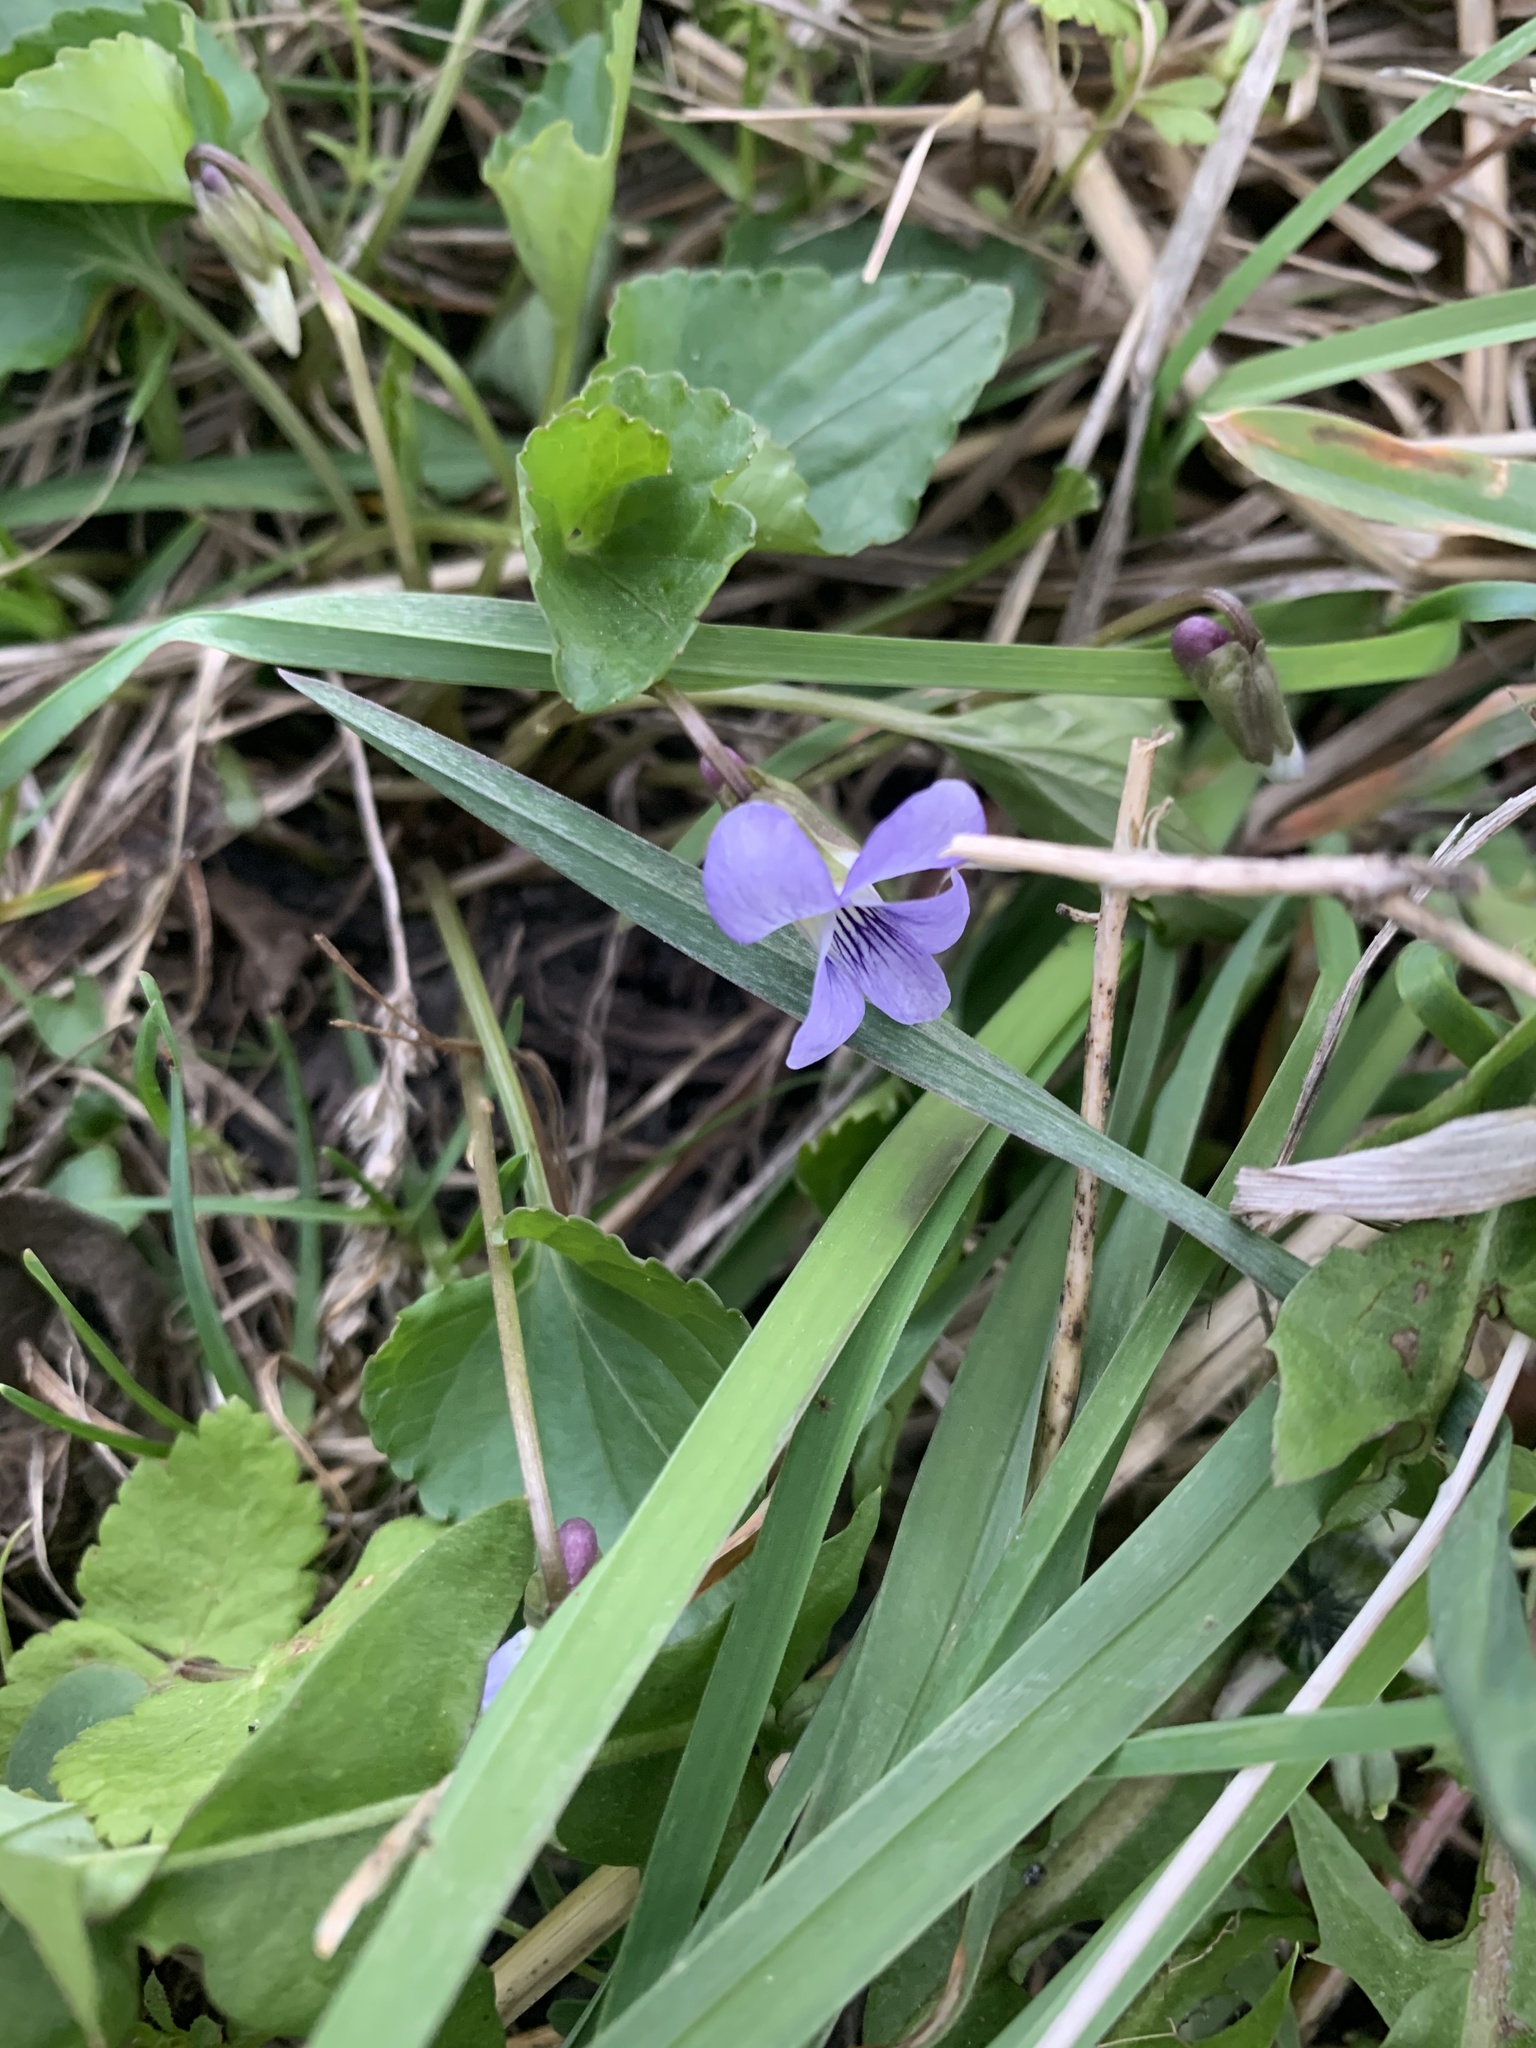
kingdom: Plantae
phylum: Tracheophyta
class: Magnoliopsida
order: Malpighiales
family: Violaceae
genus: Viola
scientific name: Viola sororia
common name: Dooryard violet
